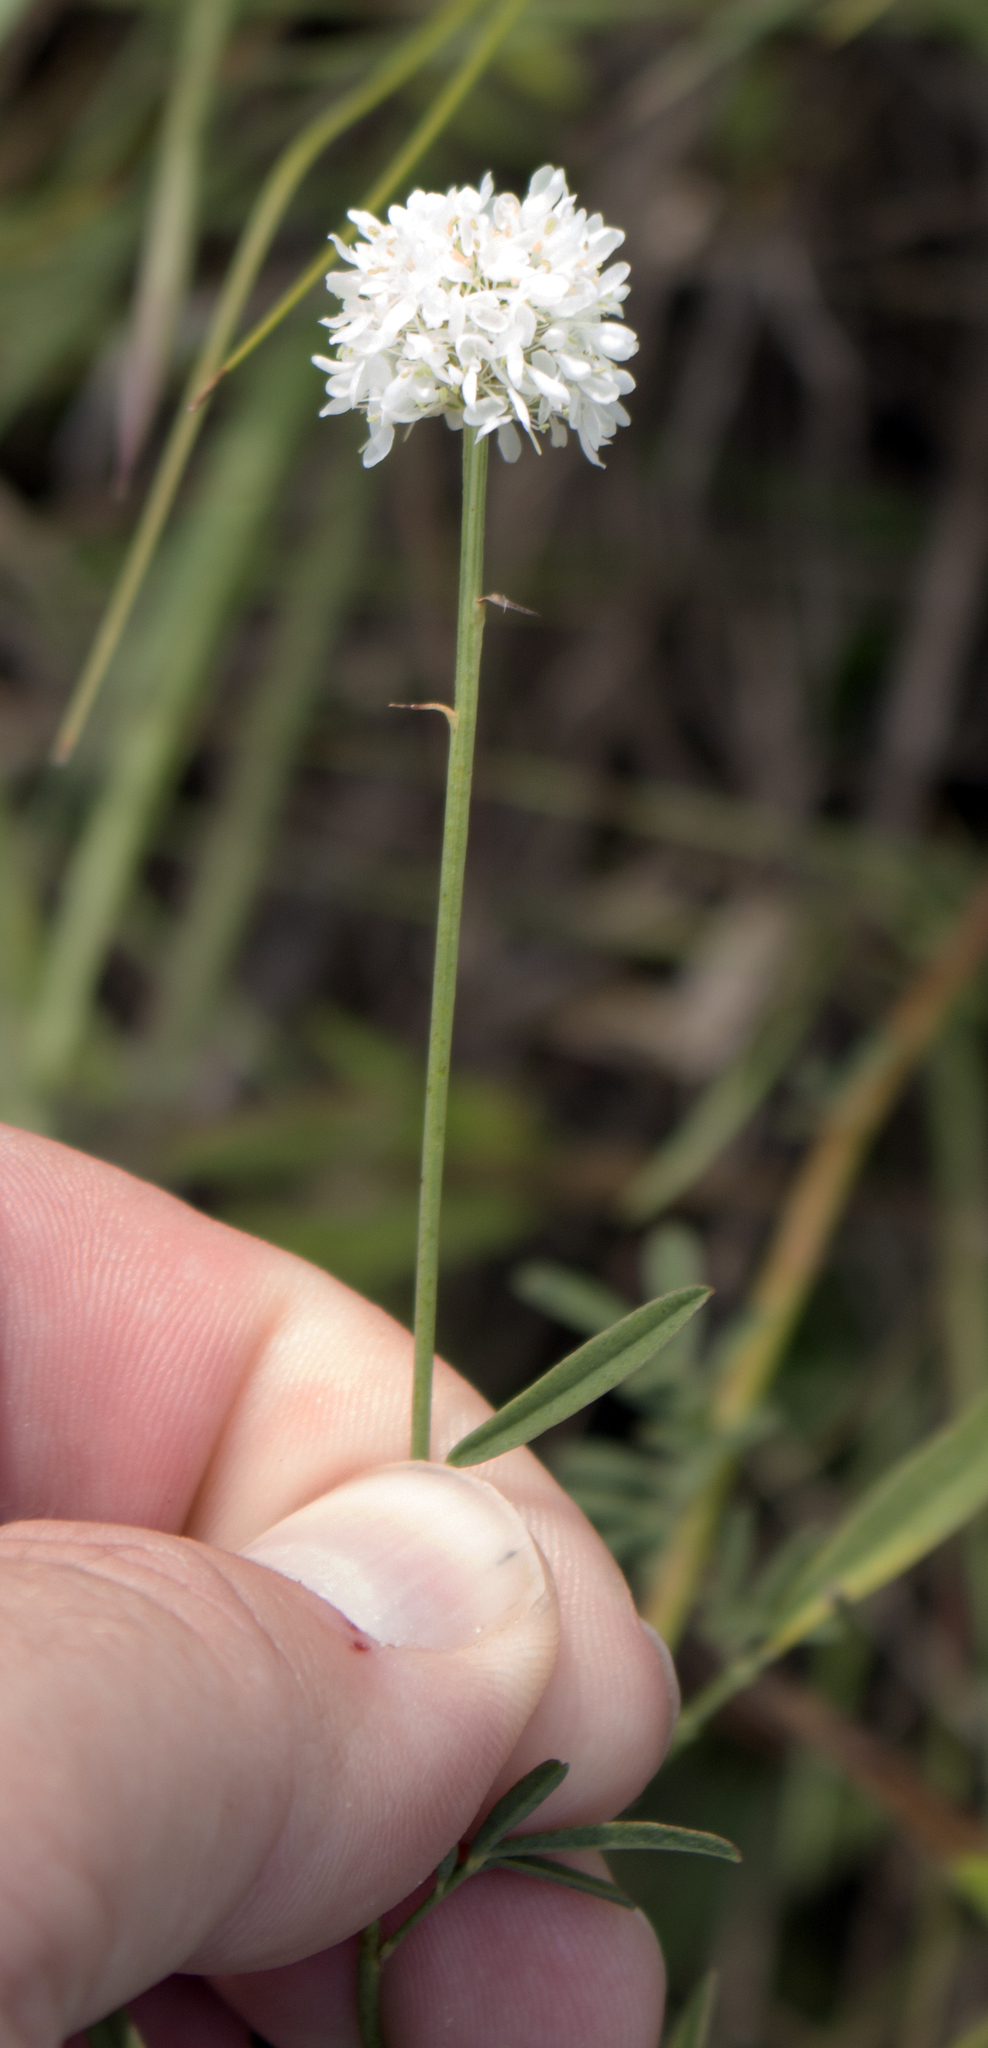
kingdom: Plantae
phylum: Tracheophyta
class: Magnoliopsida
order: Fabales
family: Fabaceae
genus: Dalea
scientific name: Dalea candida
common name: White prairie-clover
